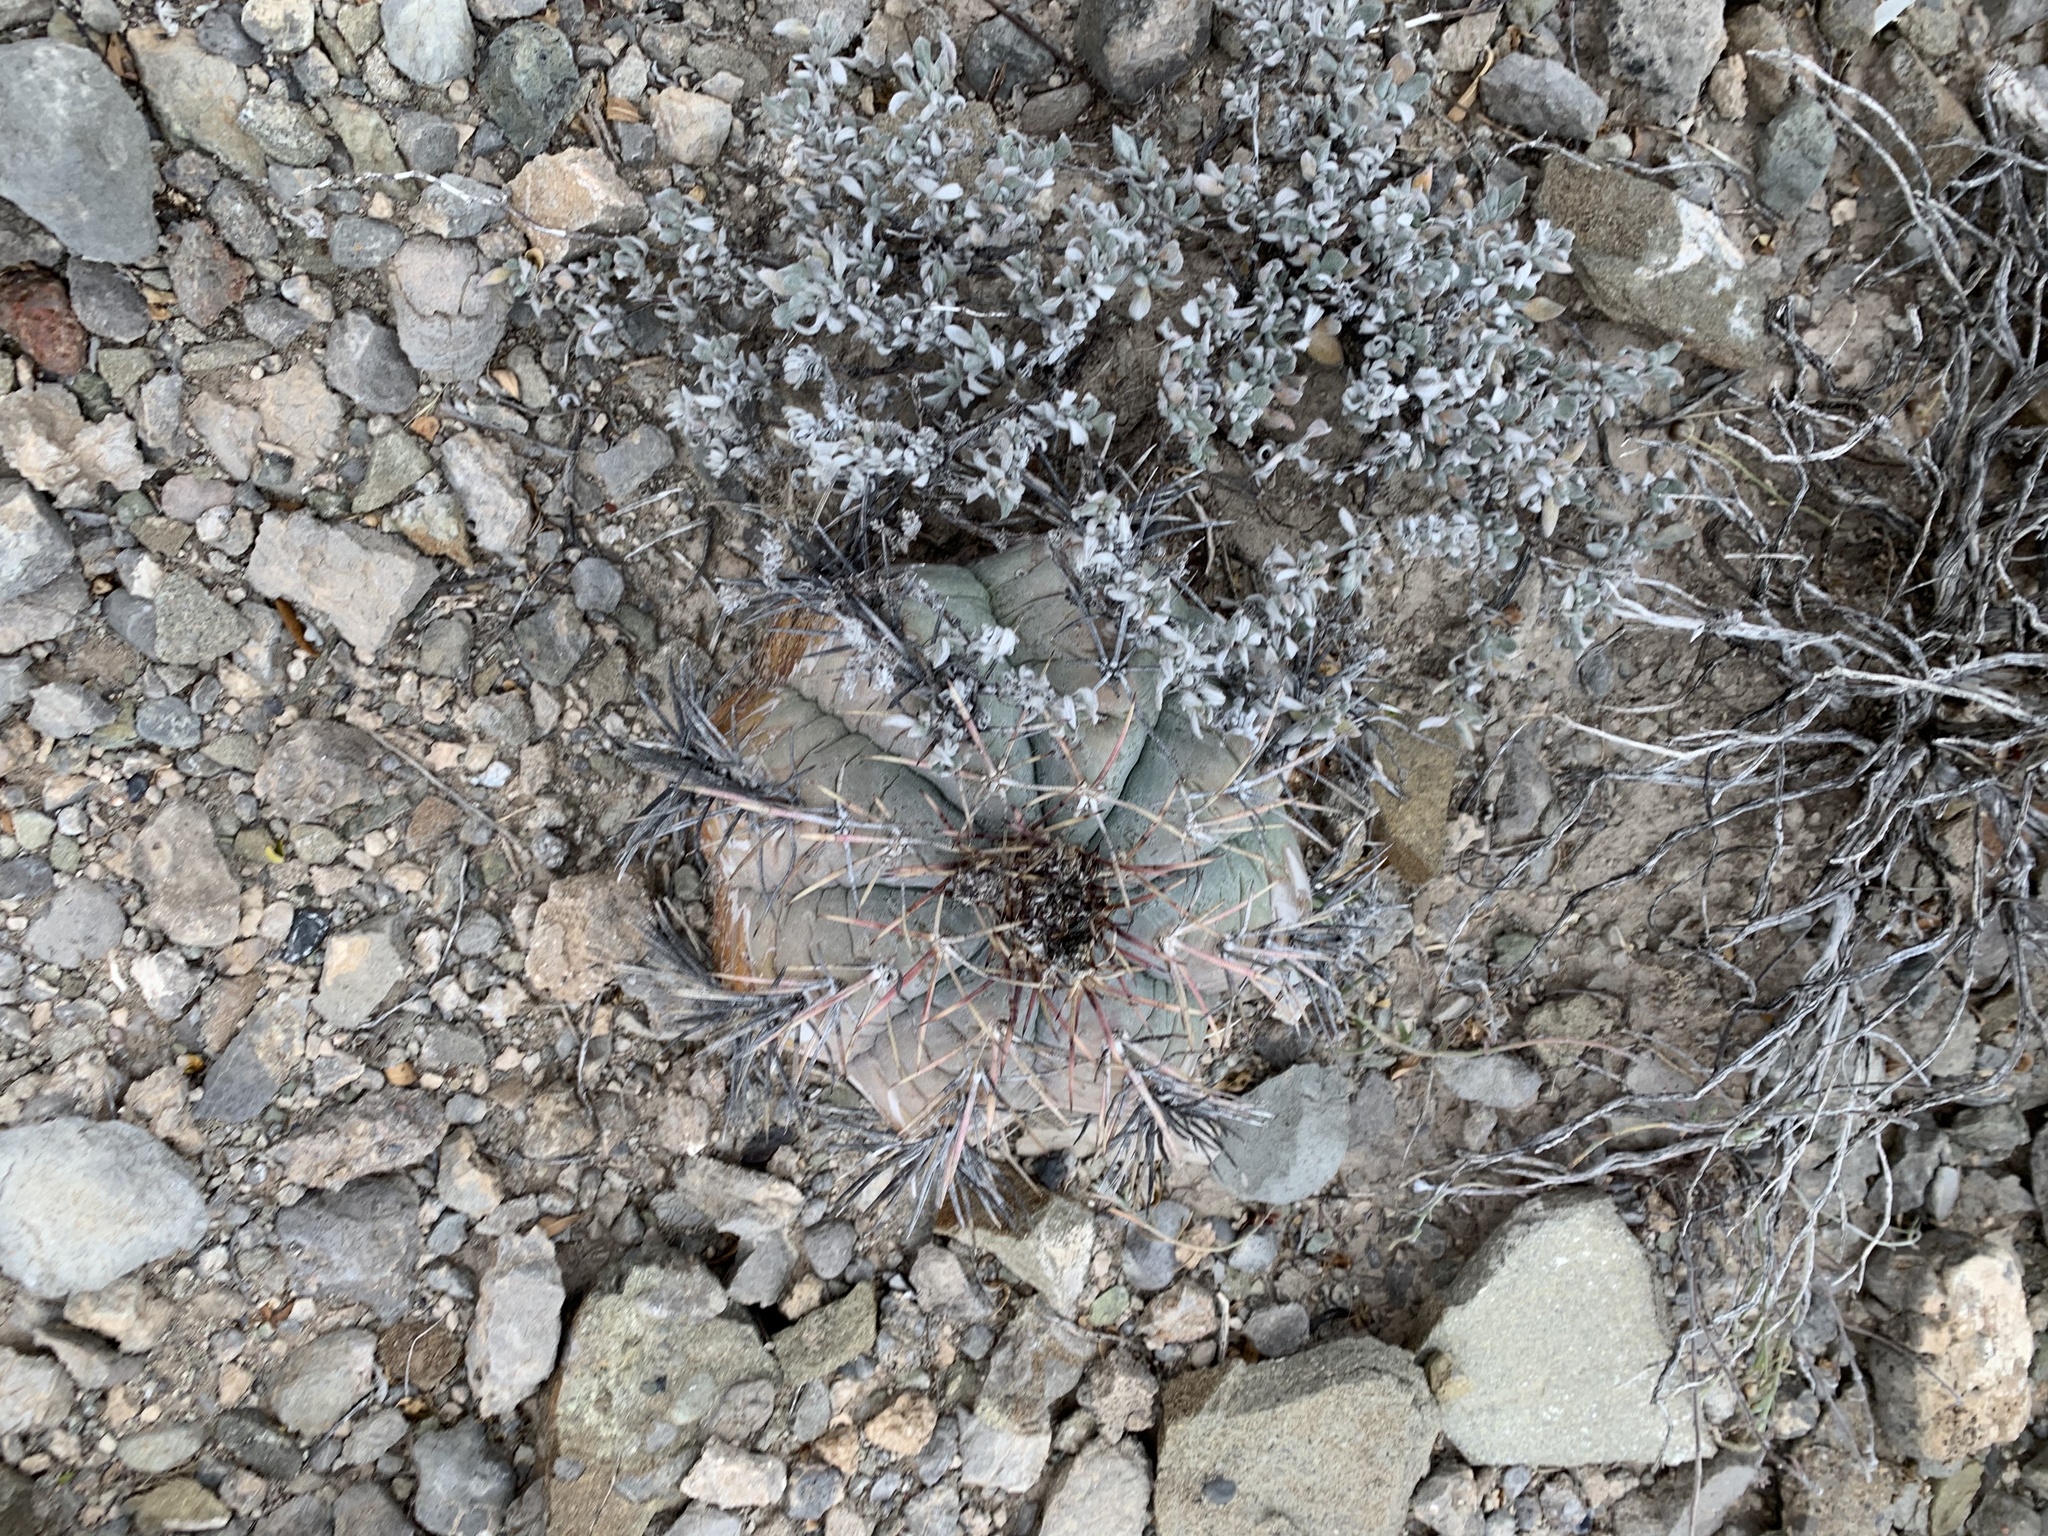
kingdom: Plantae
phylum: Tracheophyta
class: Magnoliopsida
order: Caryophyllales
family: Cactaceae
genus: Echinocactus
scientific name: Echinocactus horizonthalonius
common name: Devilshead
